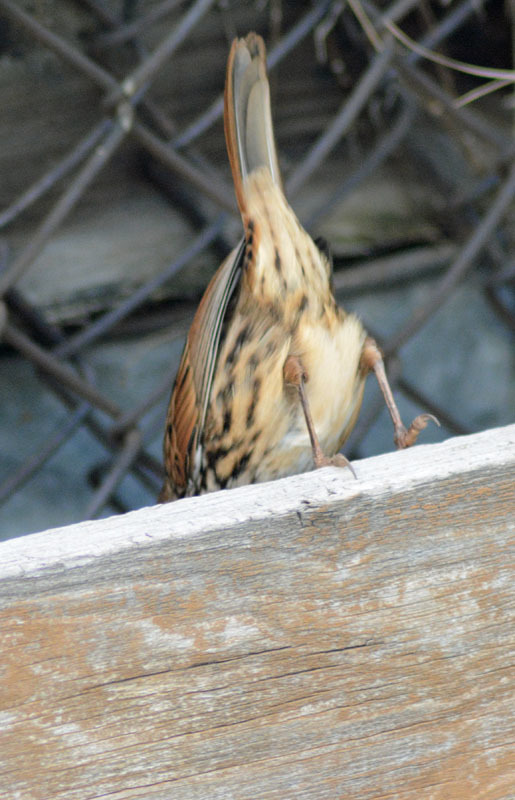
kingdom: Animalia
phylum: Chordata
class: Aves
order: Passeriformes
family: Passerellidae
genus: Melospiza
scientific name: Melospiza melodia
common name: Song sparrow
